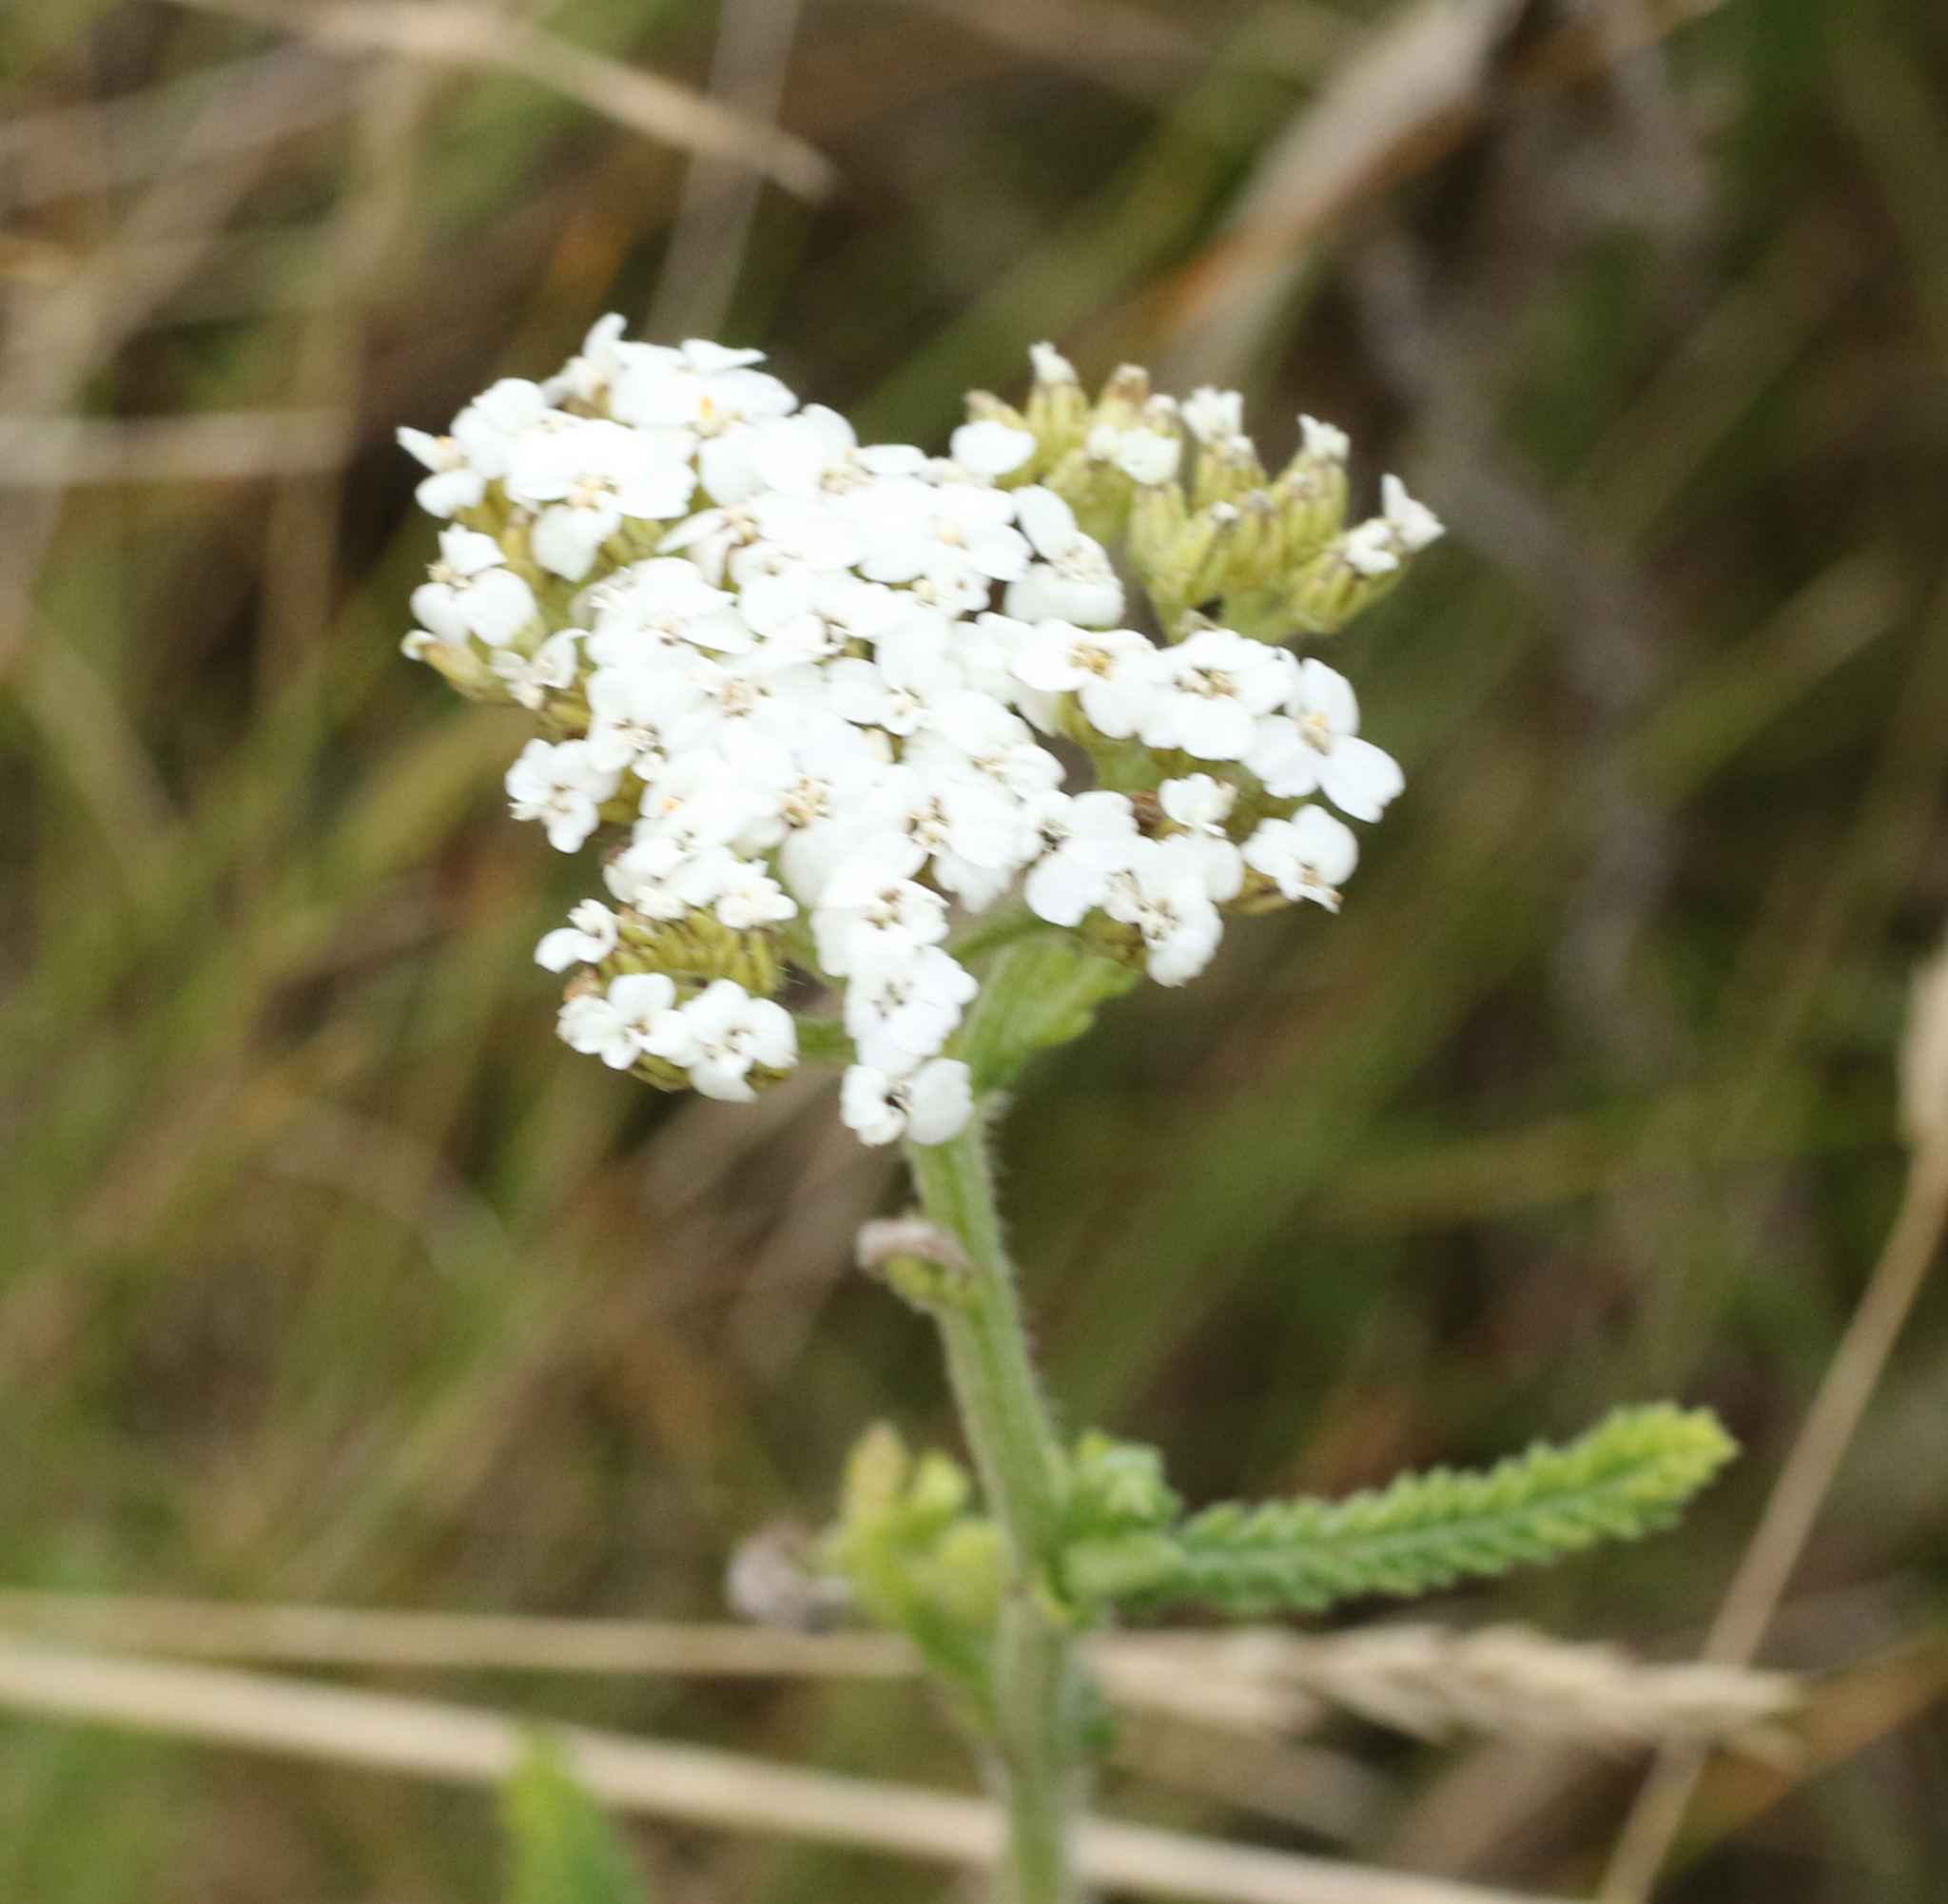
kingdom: Plantae
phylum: Tracheophyta
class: Magnoliopsida
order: Asterales
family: Asteraceae
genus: Achillea
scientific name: Achillea millefolium
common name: Yarrow
